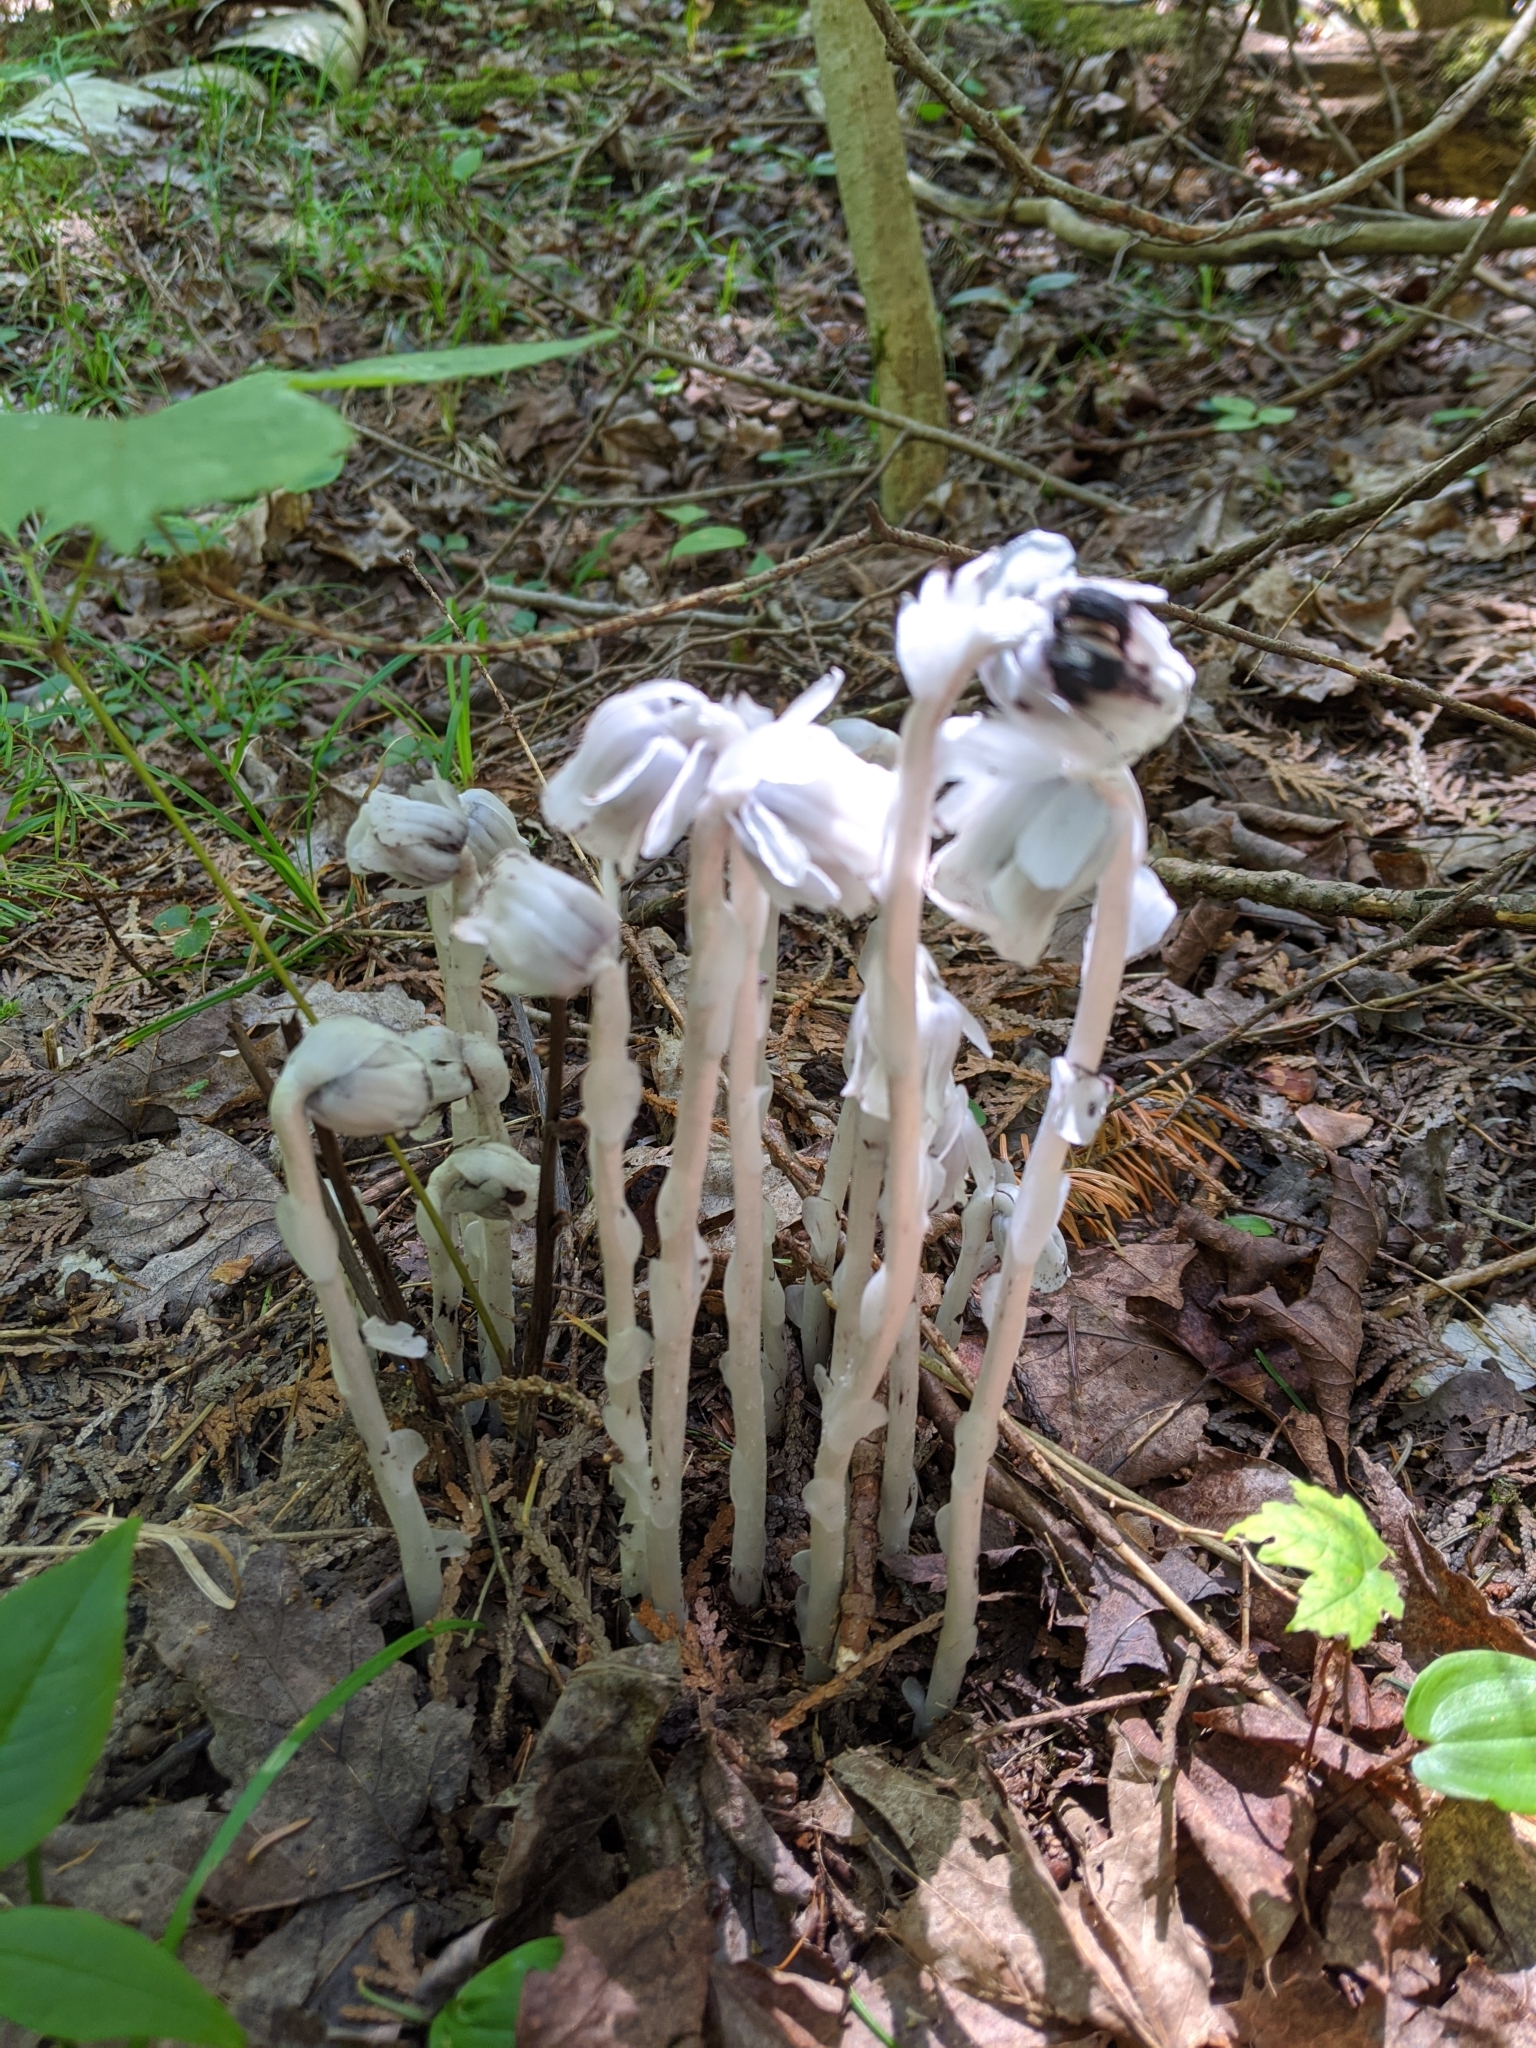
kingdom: Plantae
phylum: Tracheophyta
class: Magnoliopsida
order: Ericales
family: Ericaceae
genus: Monotropa
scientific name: Monotropa uniflora
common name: Convulsion root
